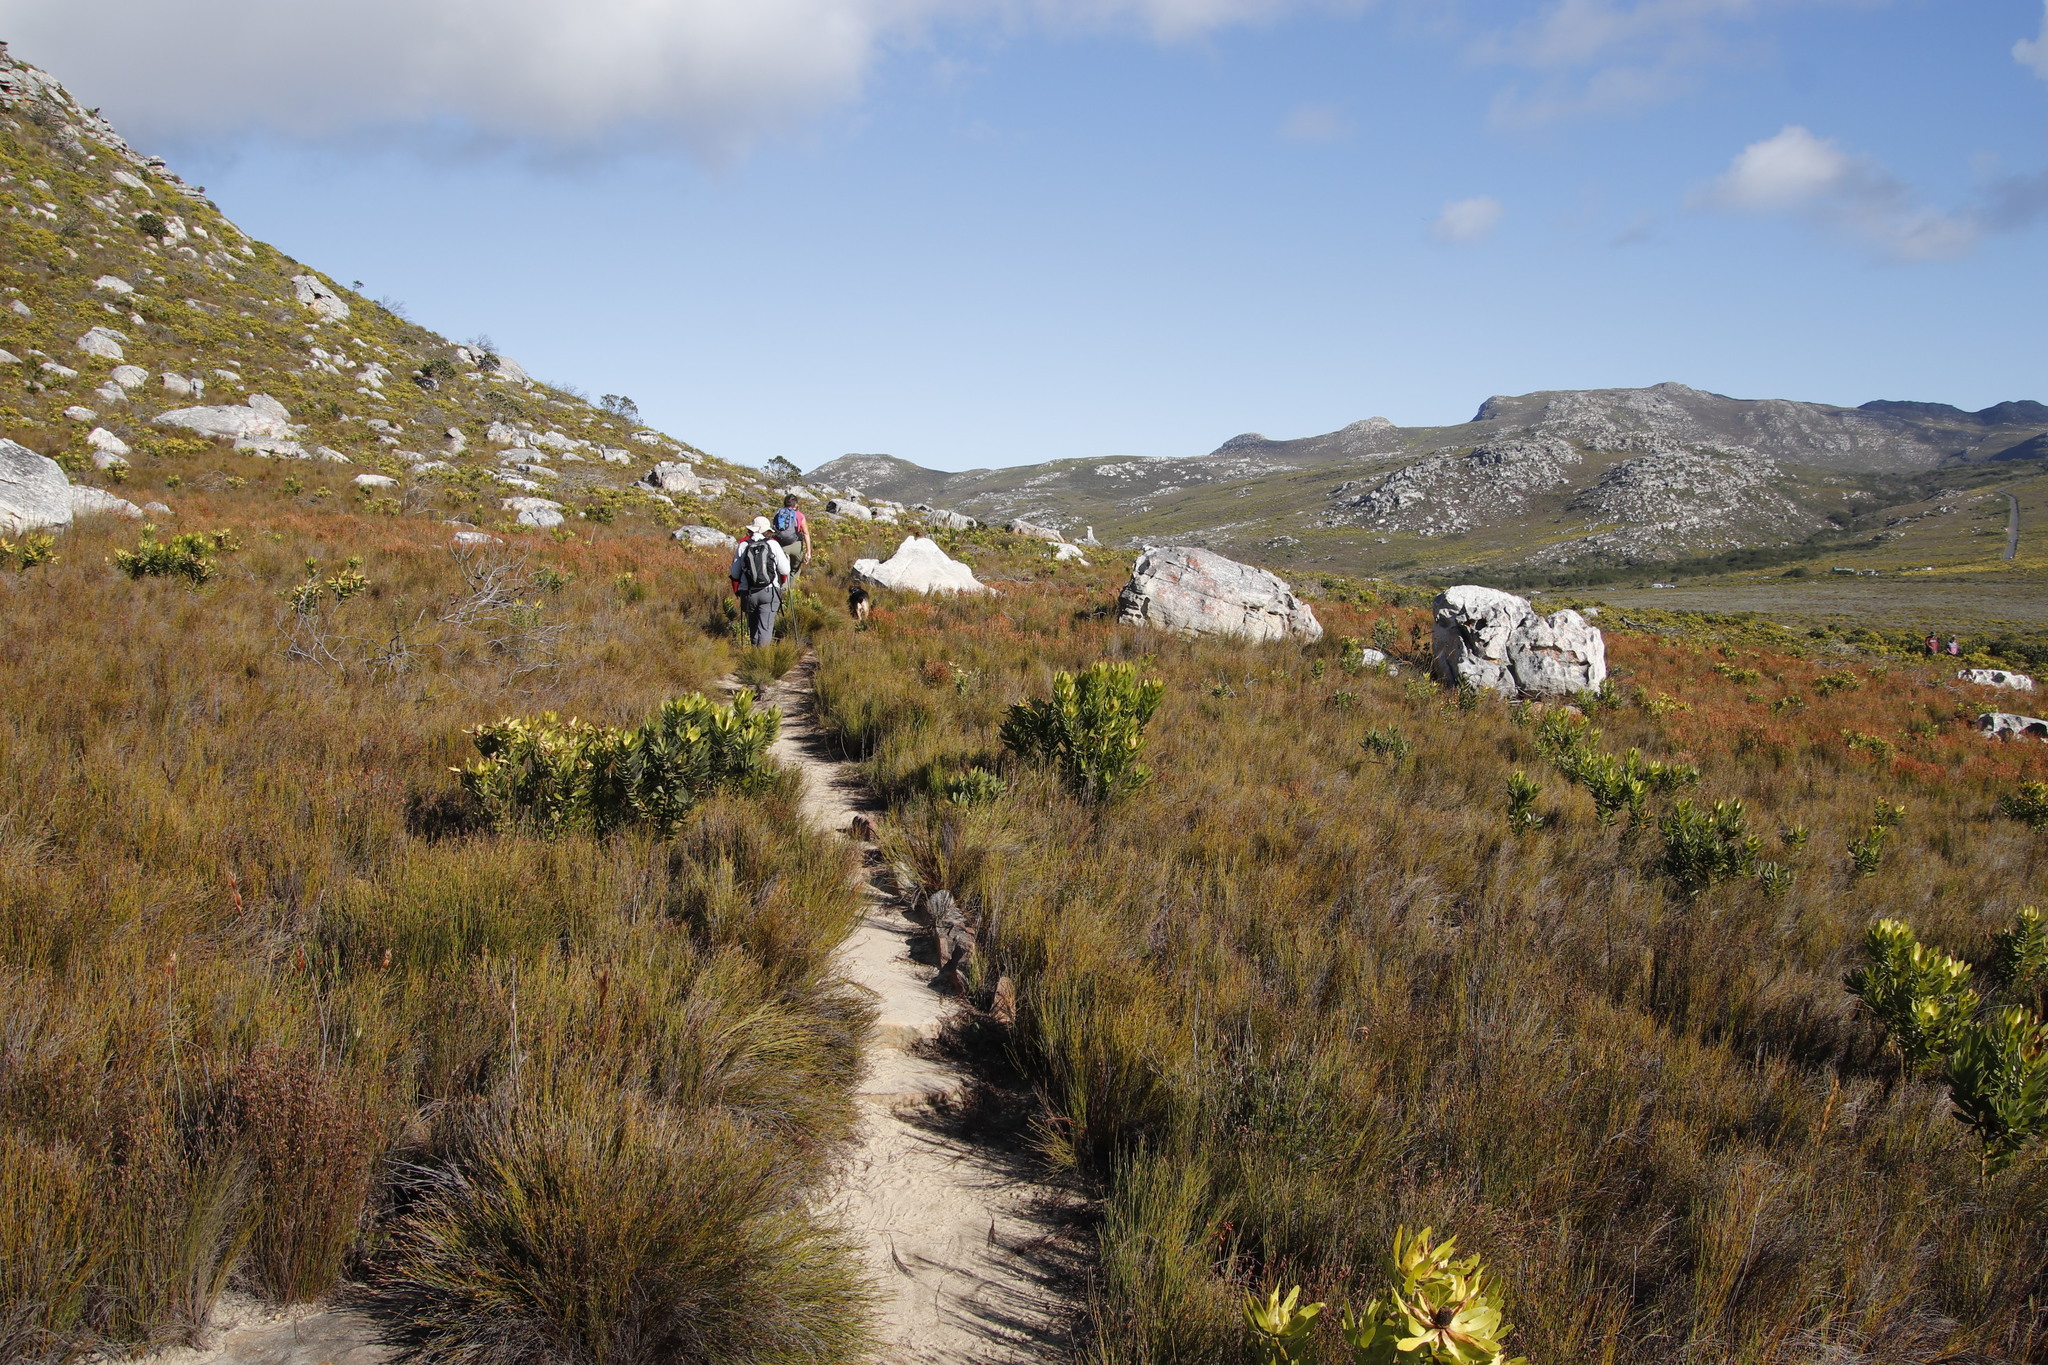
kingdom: Plantae
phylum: Tracheophyta
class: Magnoliopsida
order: Proteales
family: Proteaceae
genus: Leucadendron
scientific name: Leucadendron laureolum
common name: Golden sunshinebush
